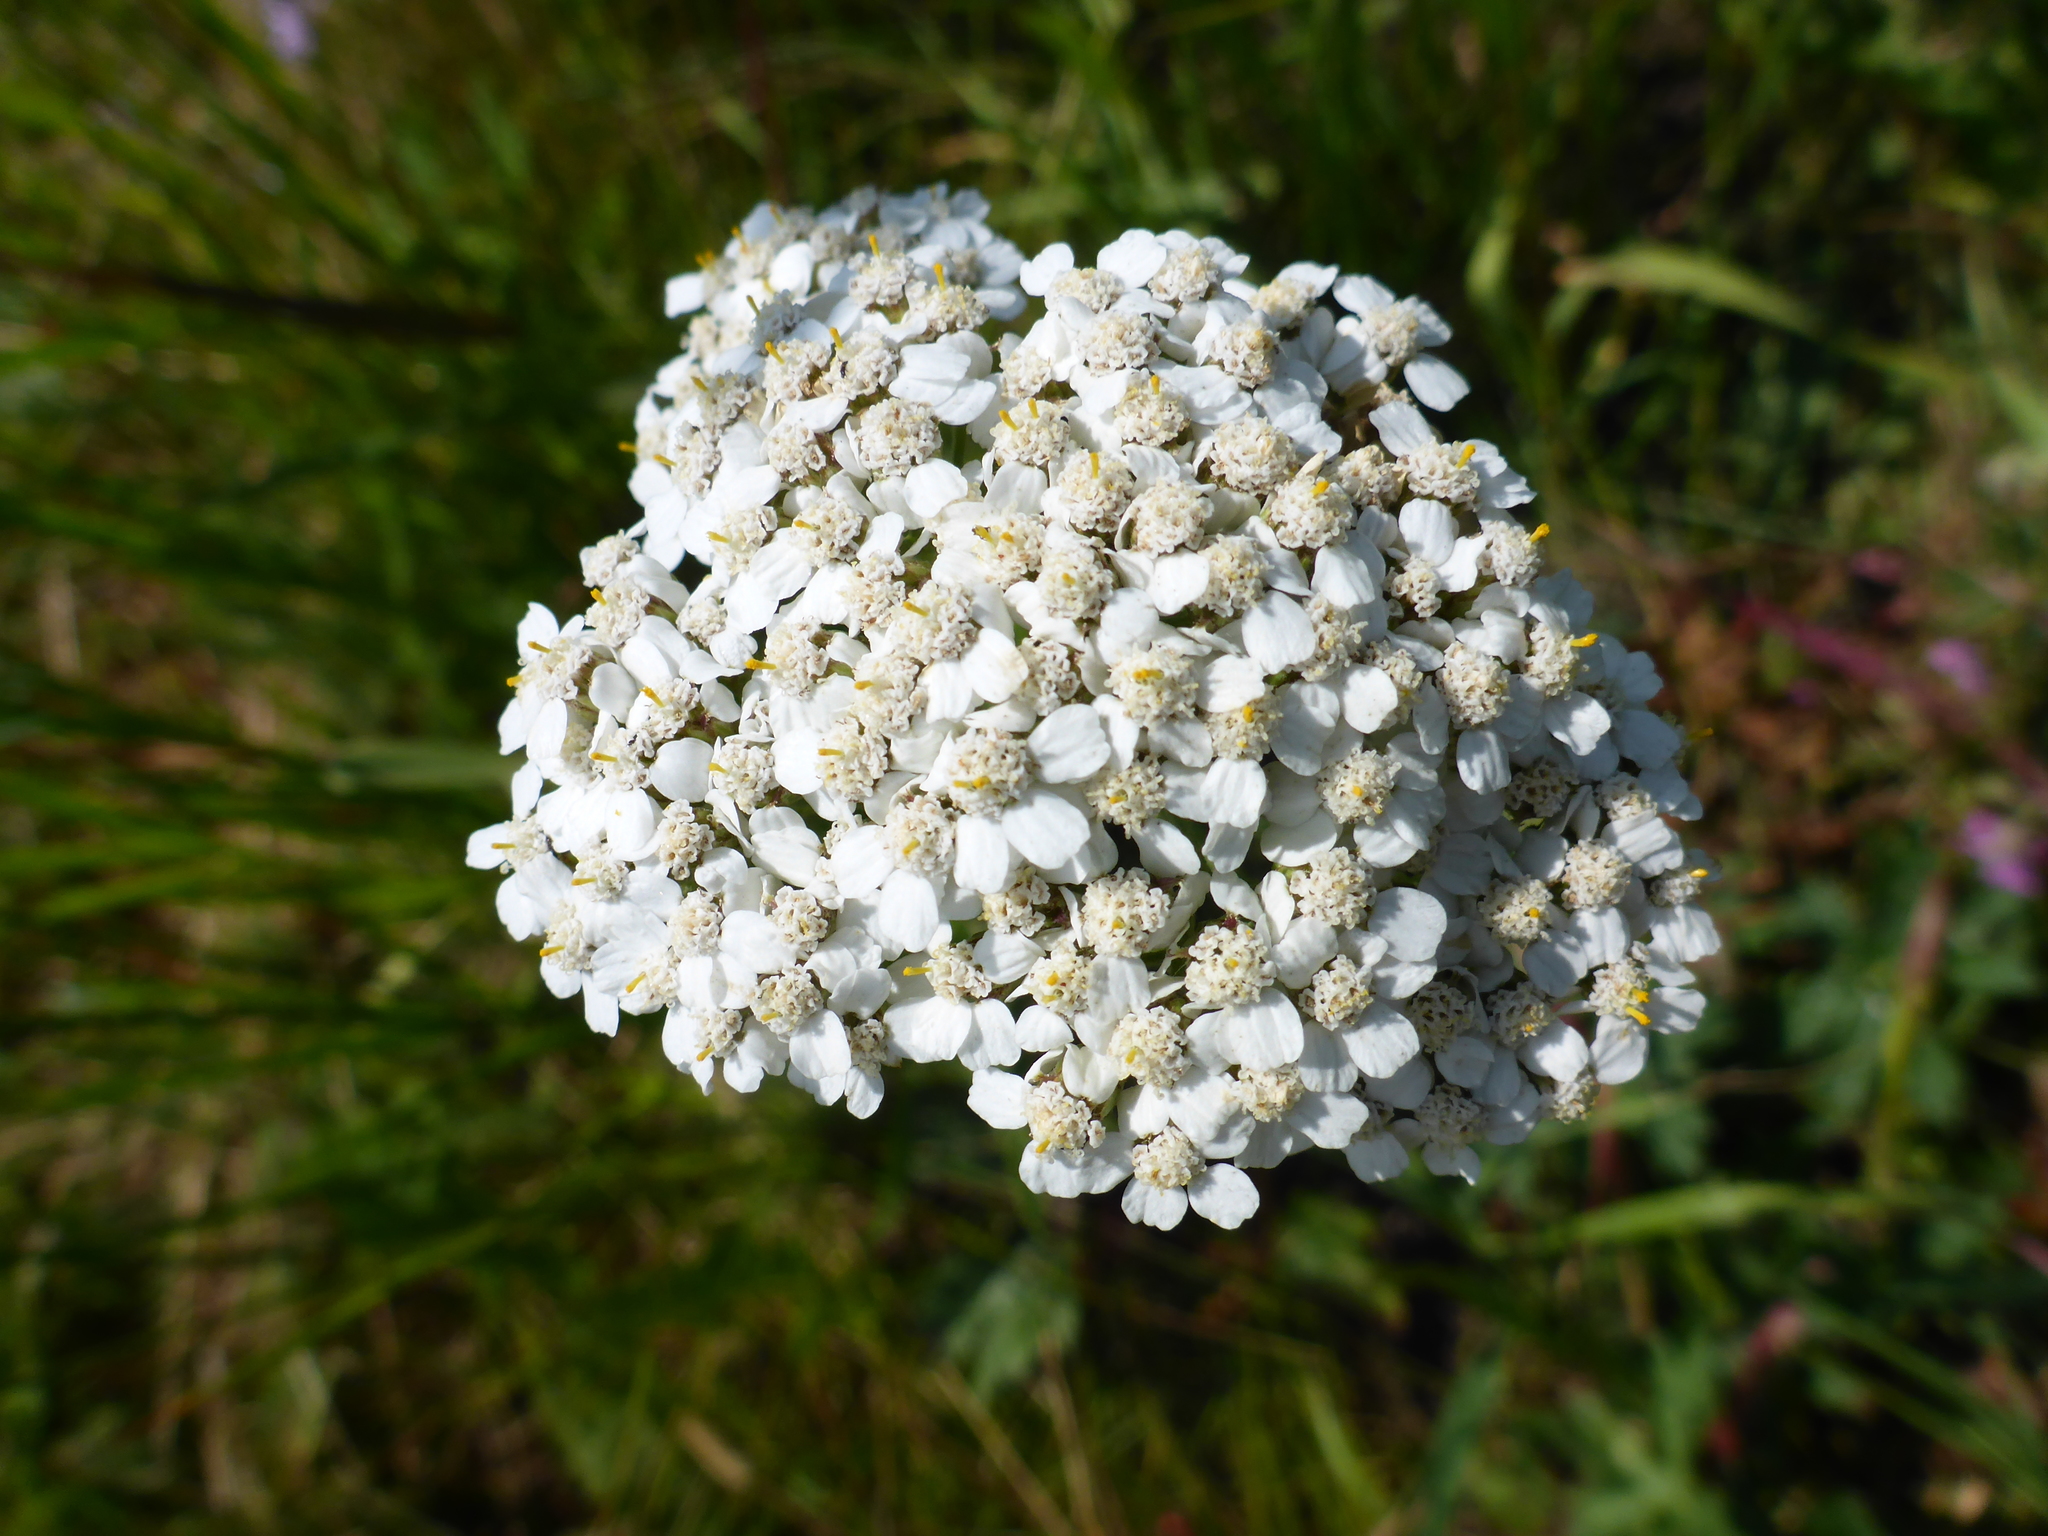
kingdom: Plantae
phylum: Tracheophyta
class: Magnoliopsida
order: Asterales
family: Asteraceae
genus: Achillea
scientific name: Achillea millefolium
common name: Yarrow
